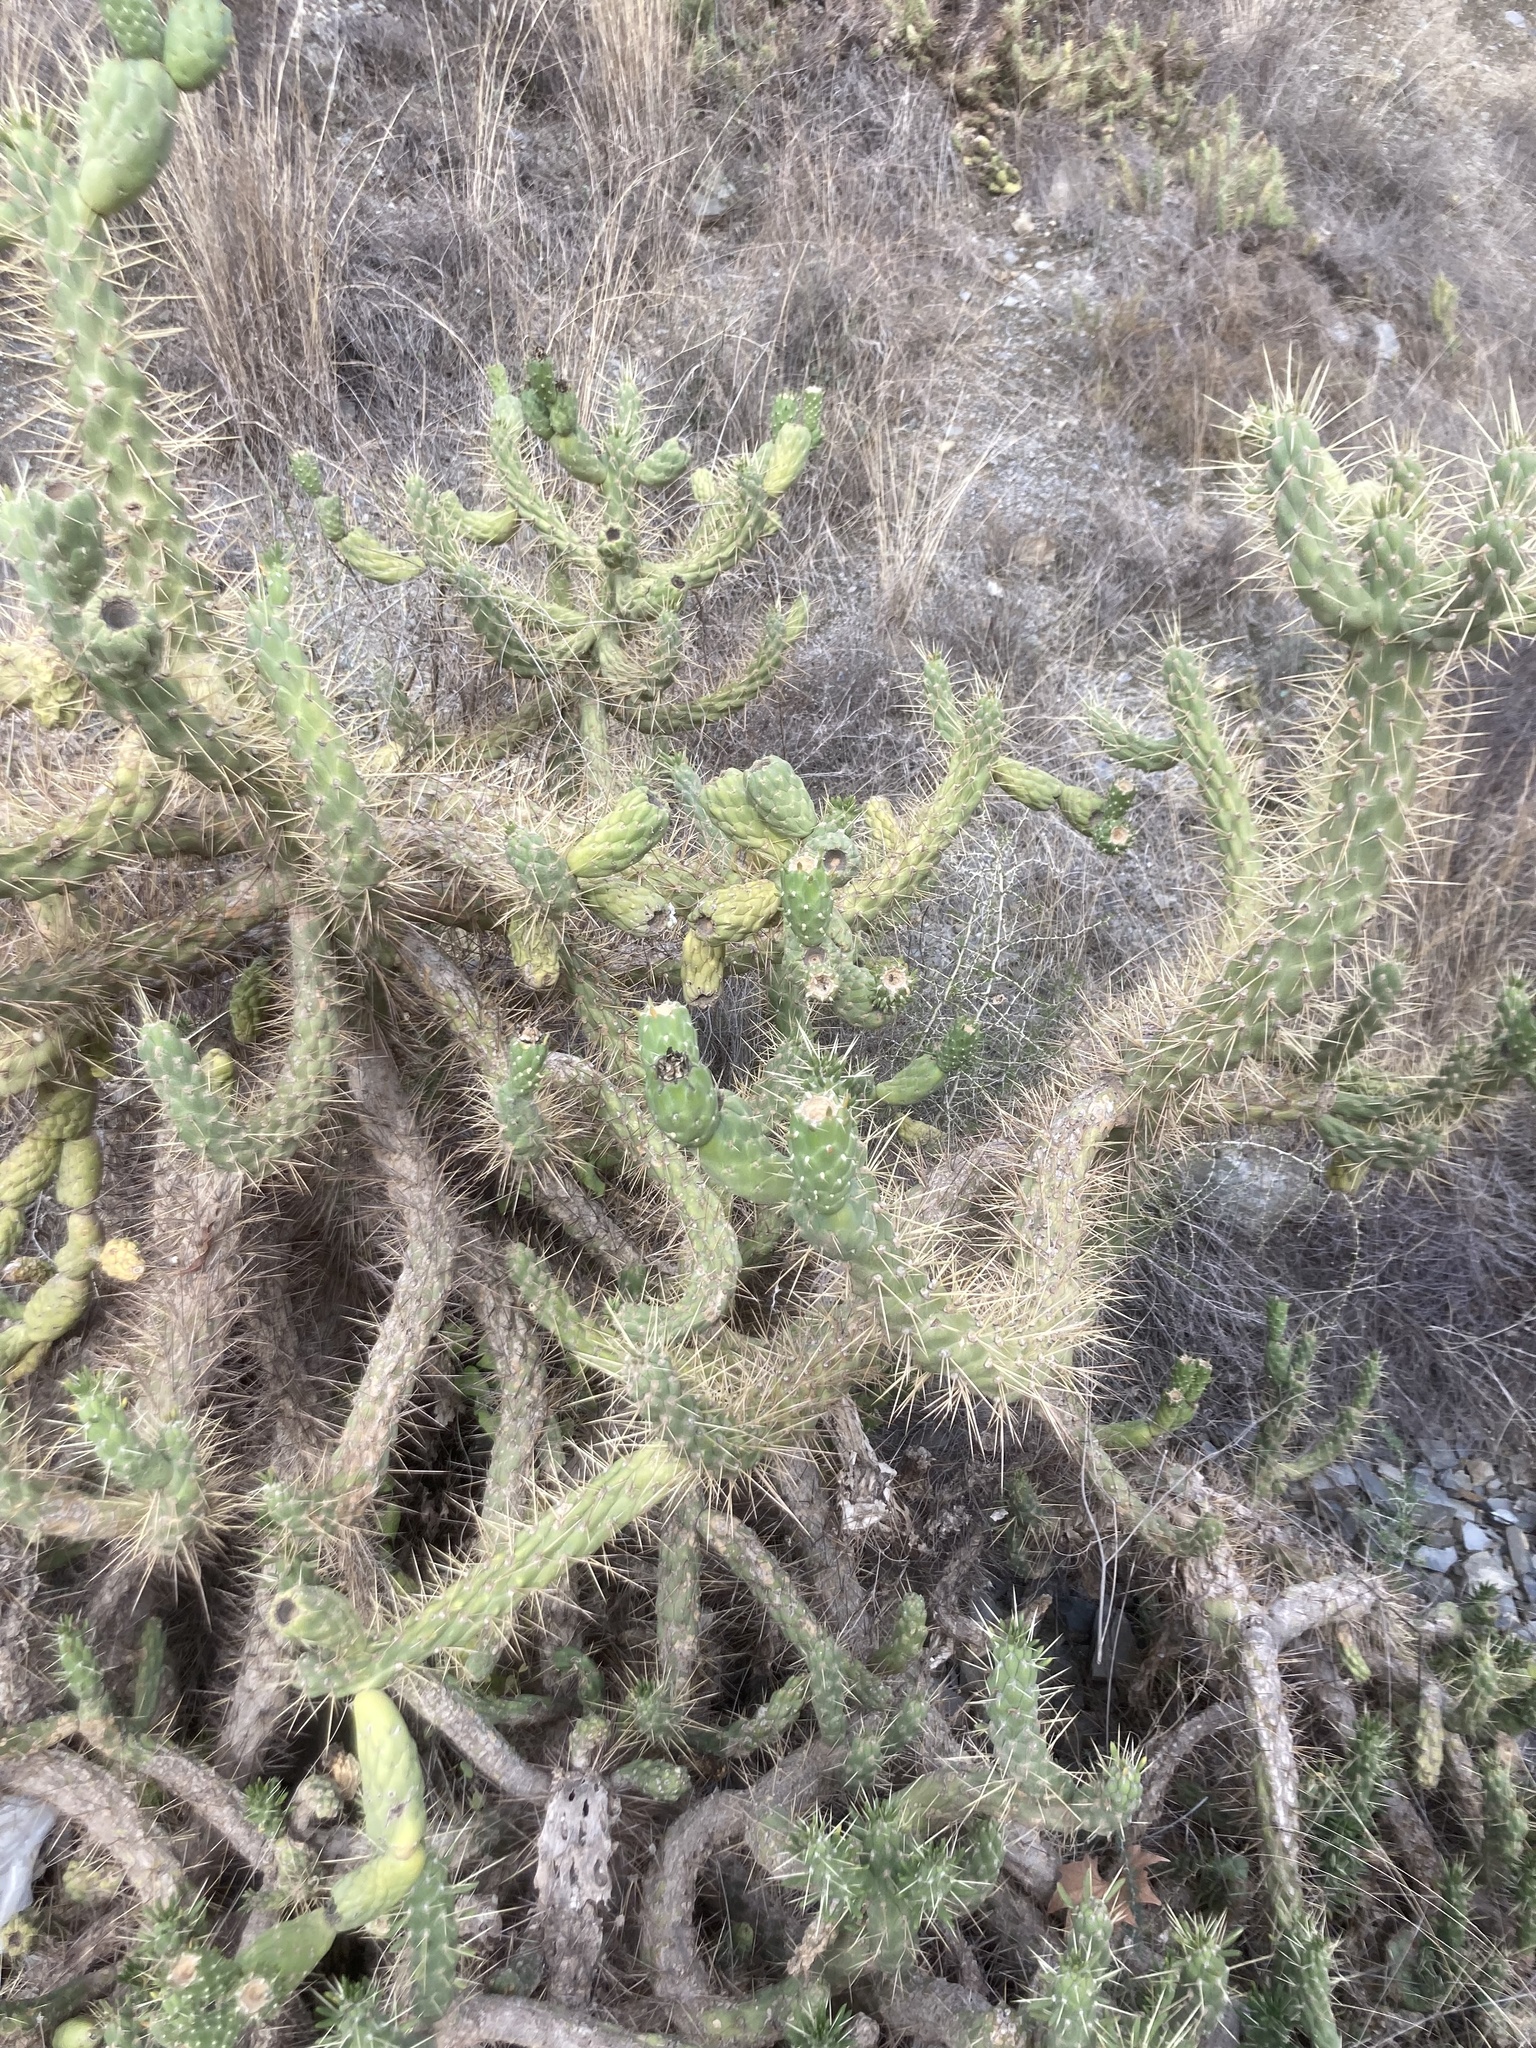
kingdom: Plantae
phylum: Tracheophyta
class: Magnoliopsida
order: Caryophyllales
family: Cactaceae
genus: Austrocylindropuntia
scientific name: Austrocylindropuntia subulata
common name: Eve's needle cactus
